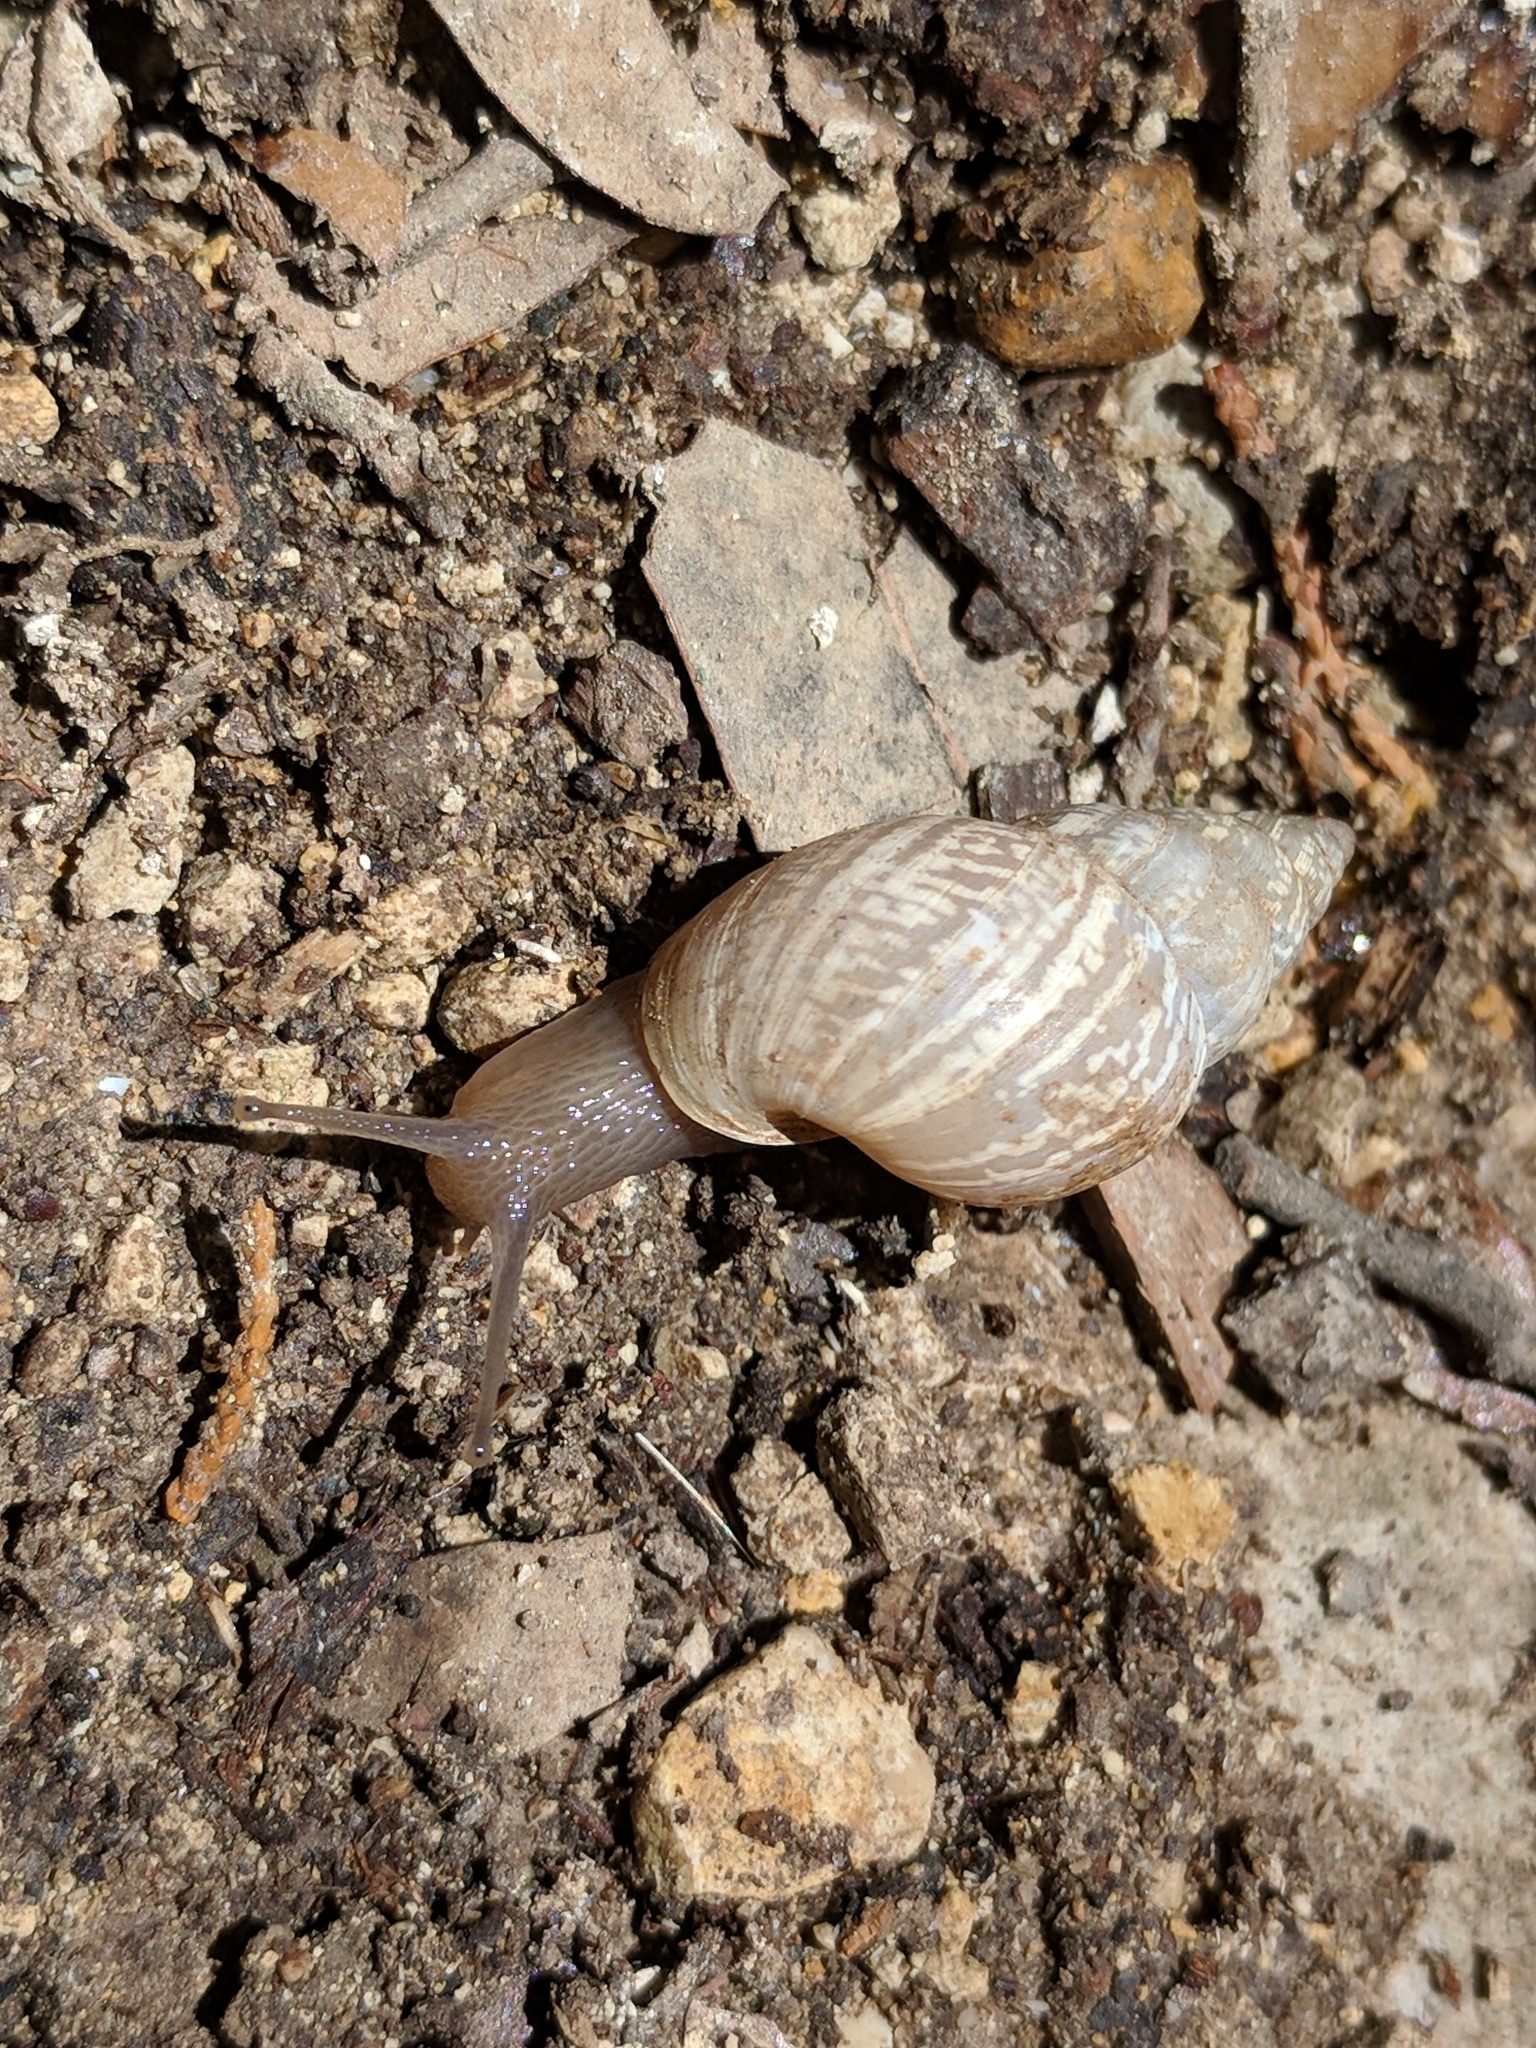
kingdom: Animalia
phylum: Mollusca
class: Gastropoda
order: Stylommatophora
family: Bulimulidae
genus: Rabdotus
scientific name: Rabdotus dealbatus
